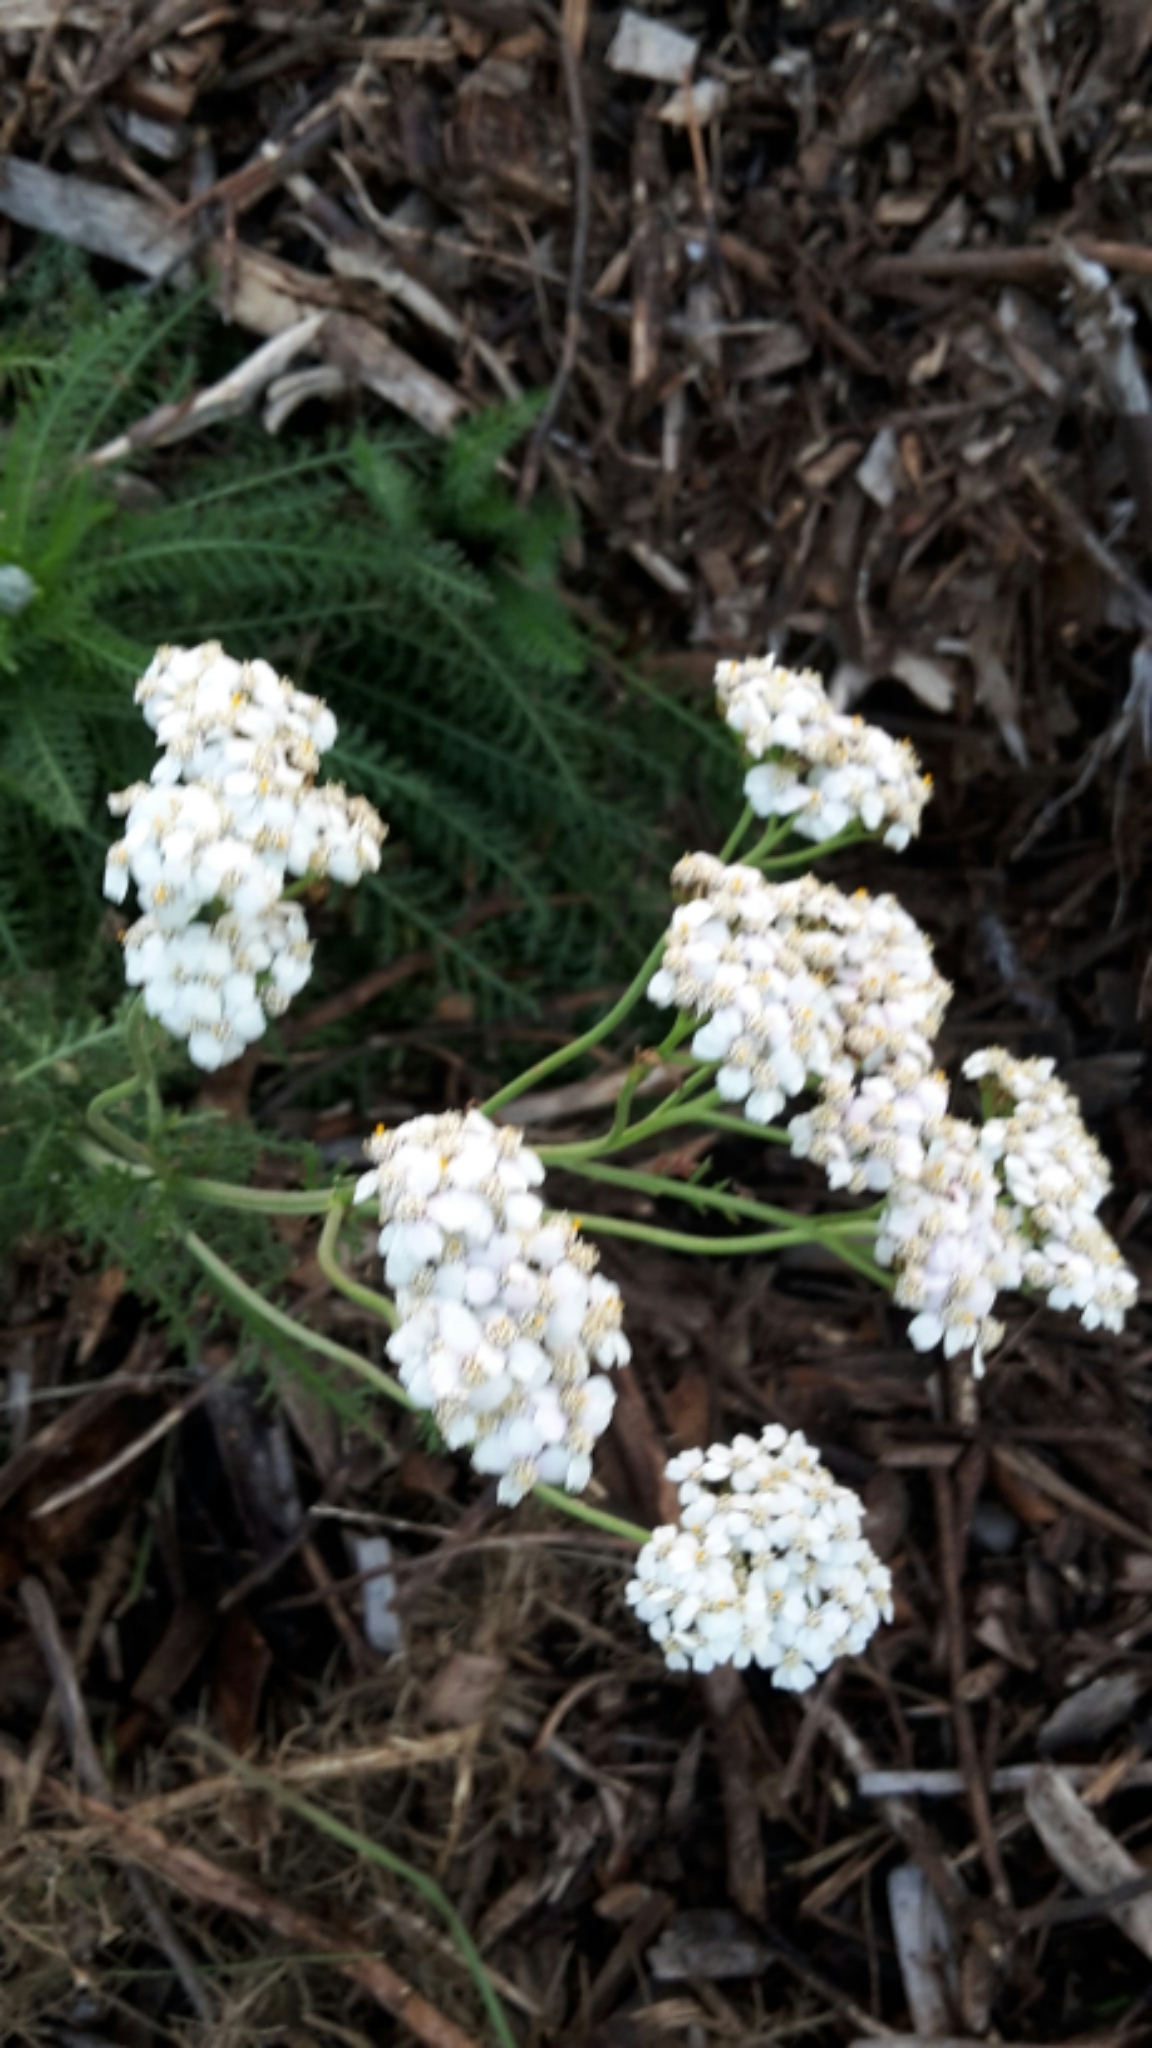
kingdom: Plantae
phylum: Tracheophyta
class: Magnoliopsida
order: Asterales
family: Asteraceae
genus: Achillea
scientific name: Achillea millefolium
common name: Yarrow
